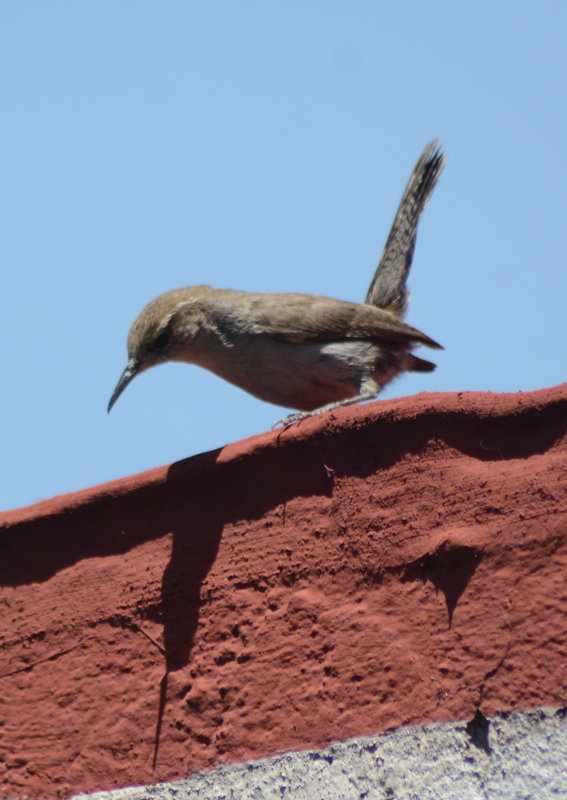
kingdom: Animalia
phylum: Chordata
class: Aves
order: Passeriformes
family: Troglodytidae
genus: Thryomanes
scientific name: Thryomanes bewickii
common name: Bewick's wren
